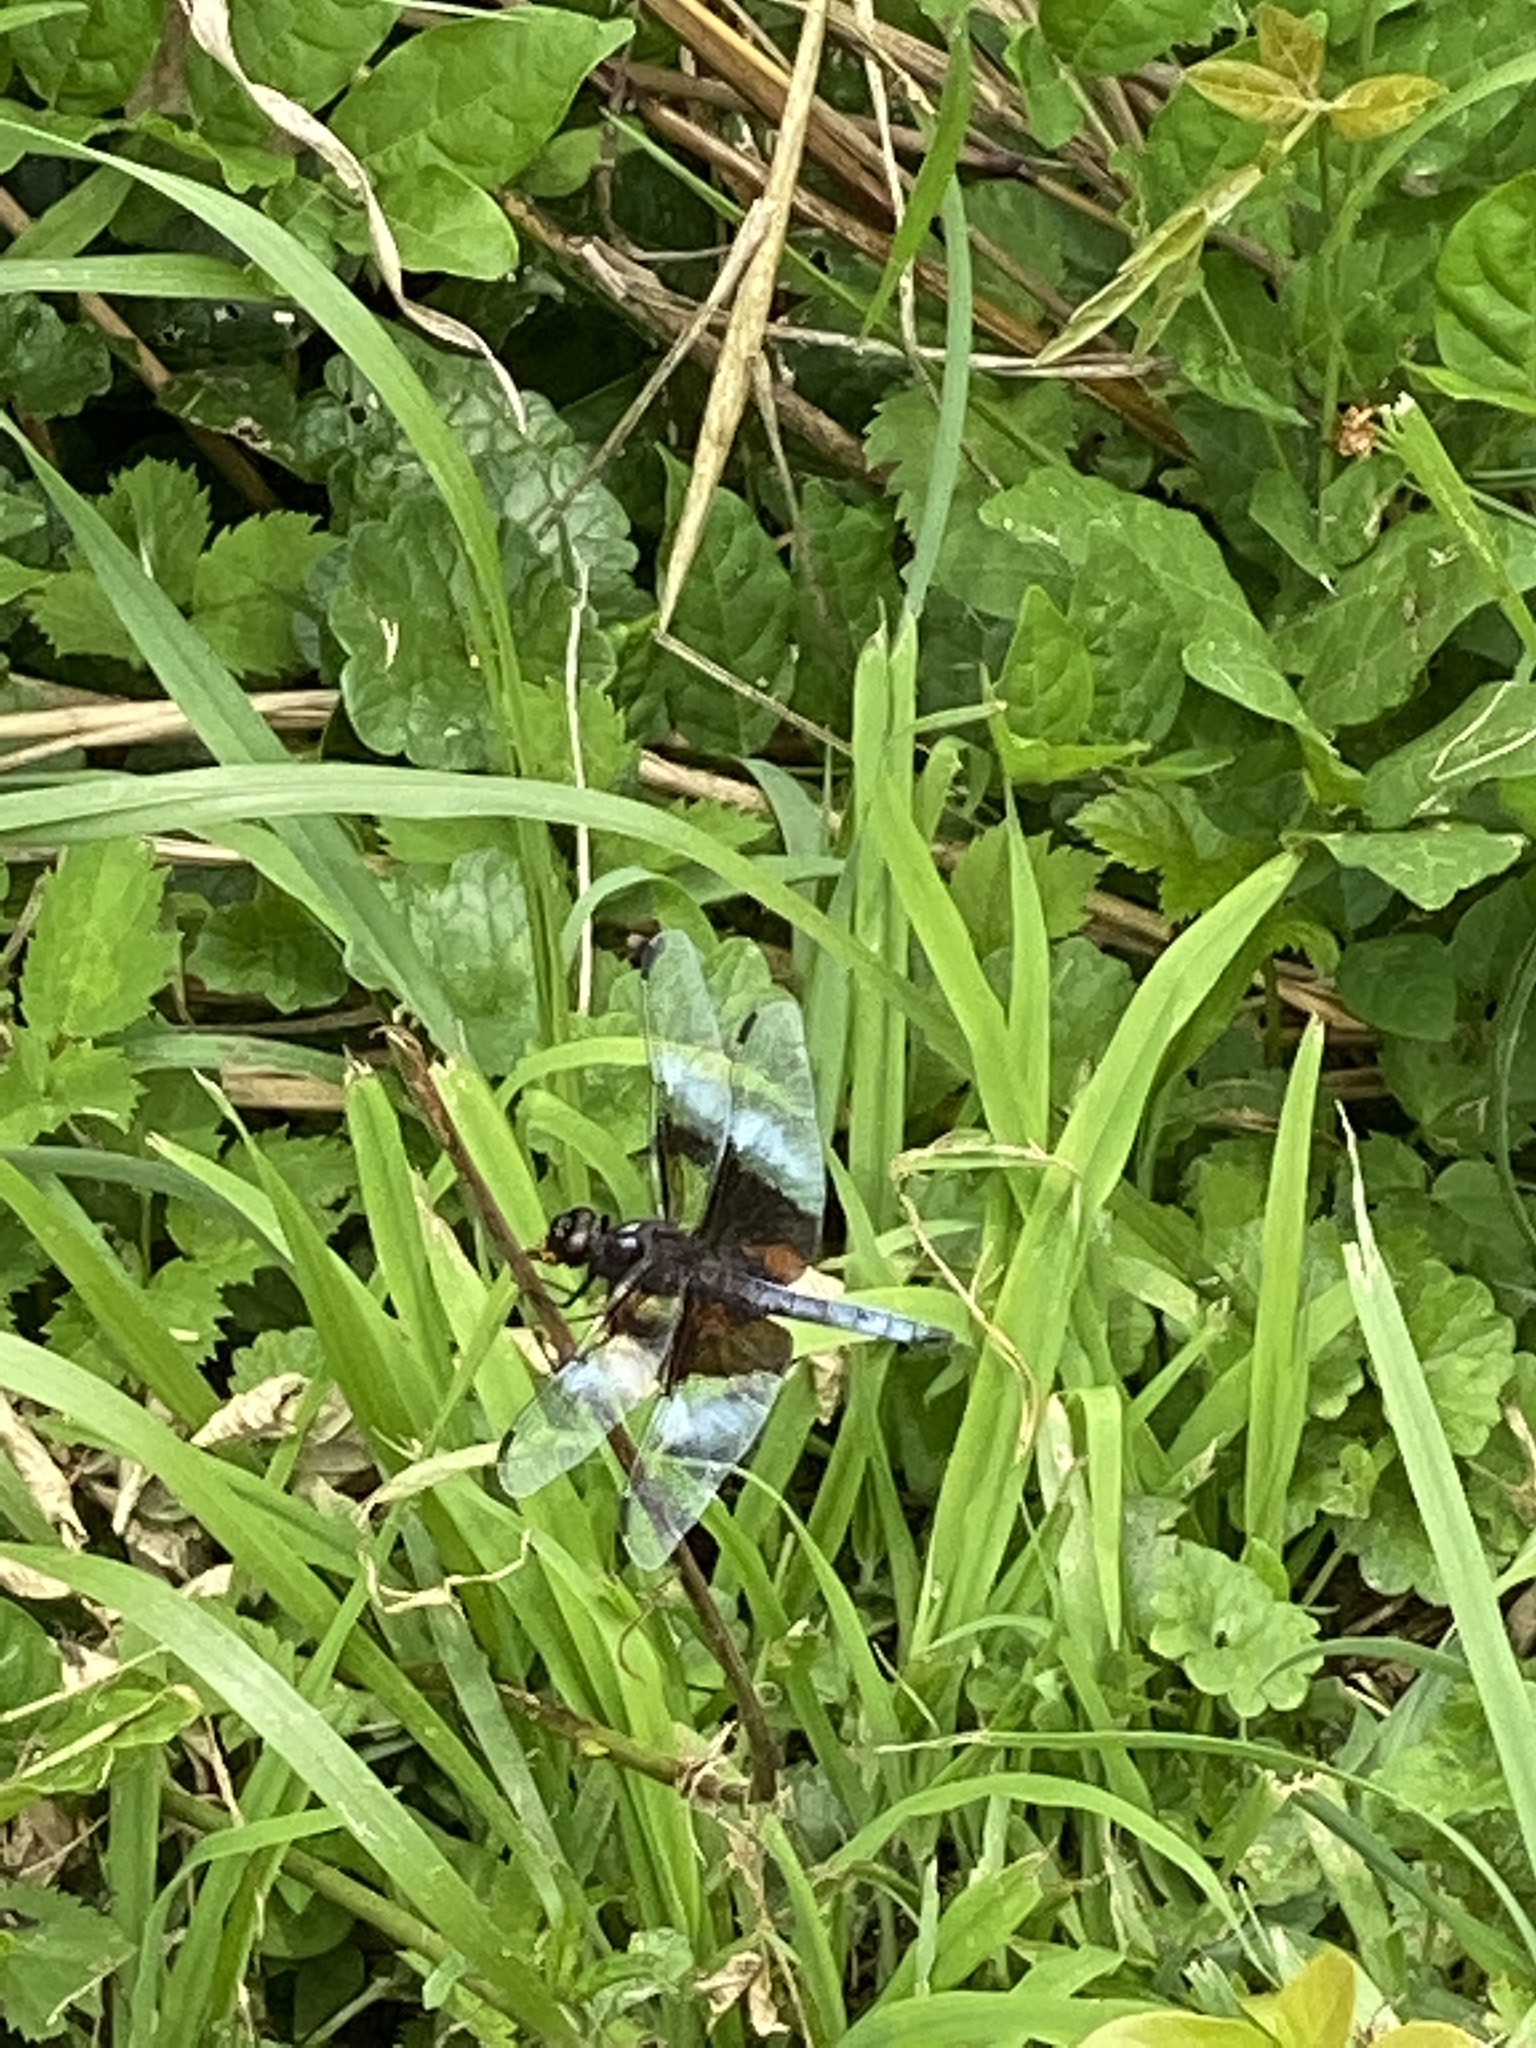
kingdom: Animalia
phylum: Arthropoda
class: Insecta
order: Odonata
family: Libellulidae
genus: Libellula
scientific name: Libellula luctuosa
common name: Widow skimmer
